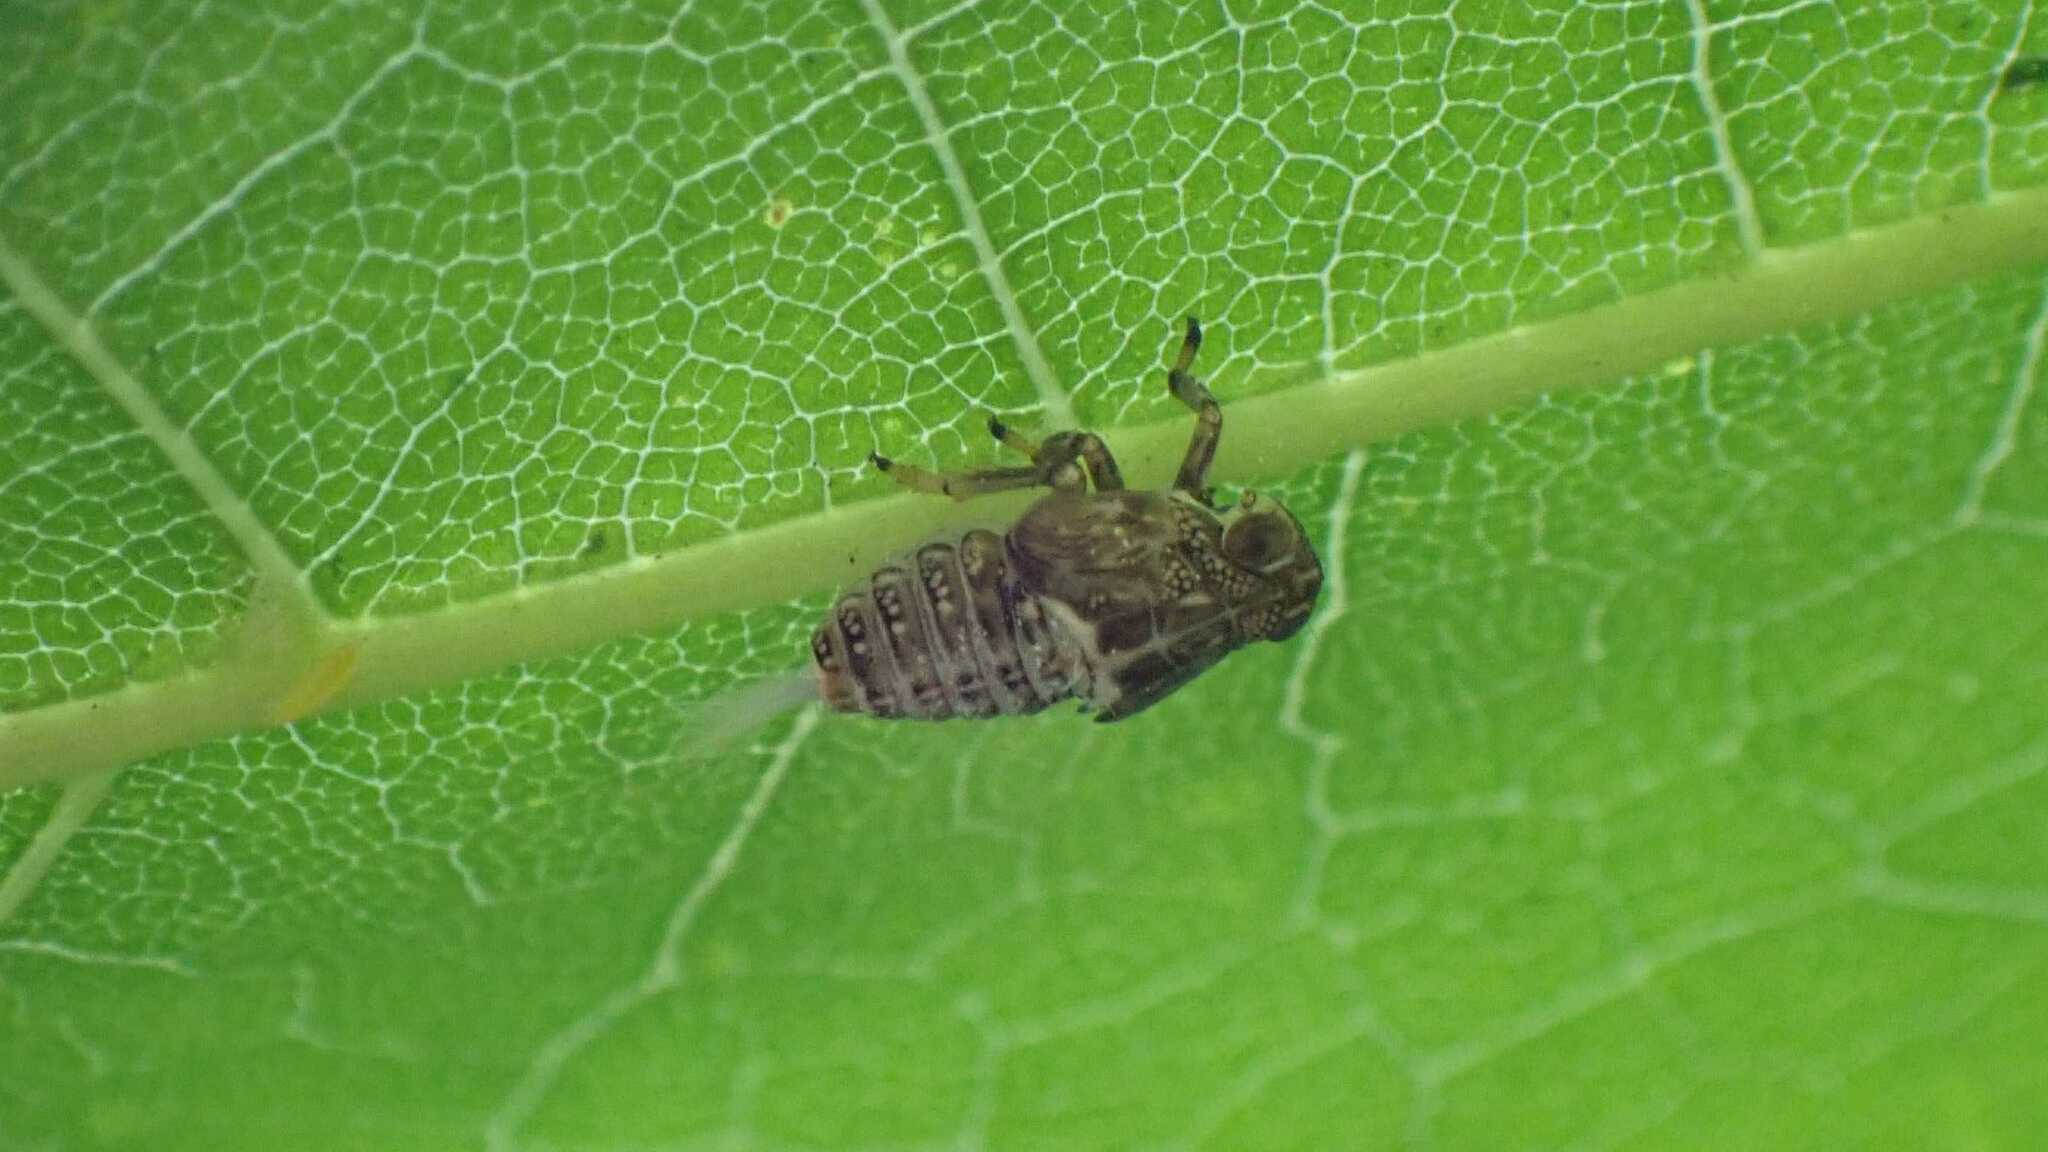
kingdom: Animalia
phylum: Arthropoda
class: Insecta
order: Hemiptera
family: Issidae
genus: Issus
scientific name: Issus coleoptratus
